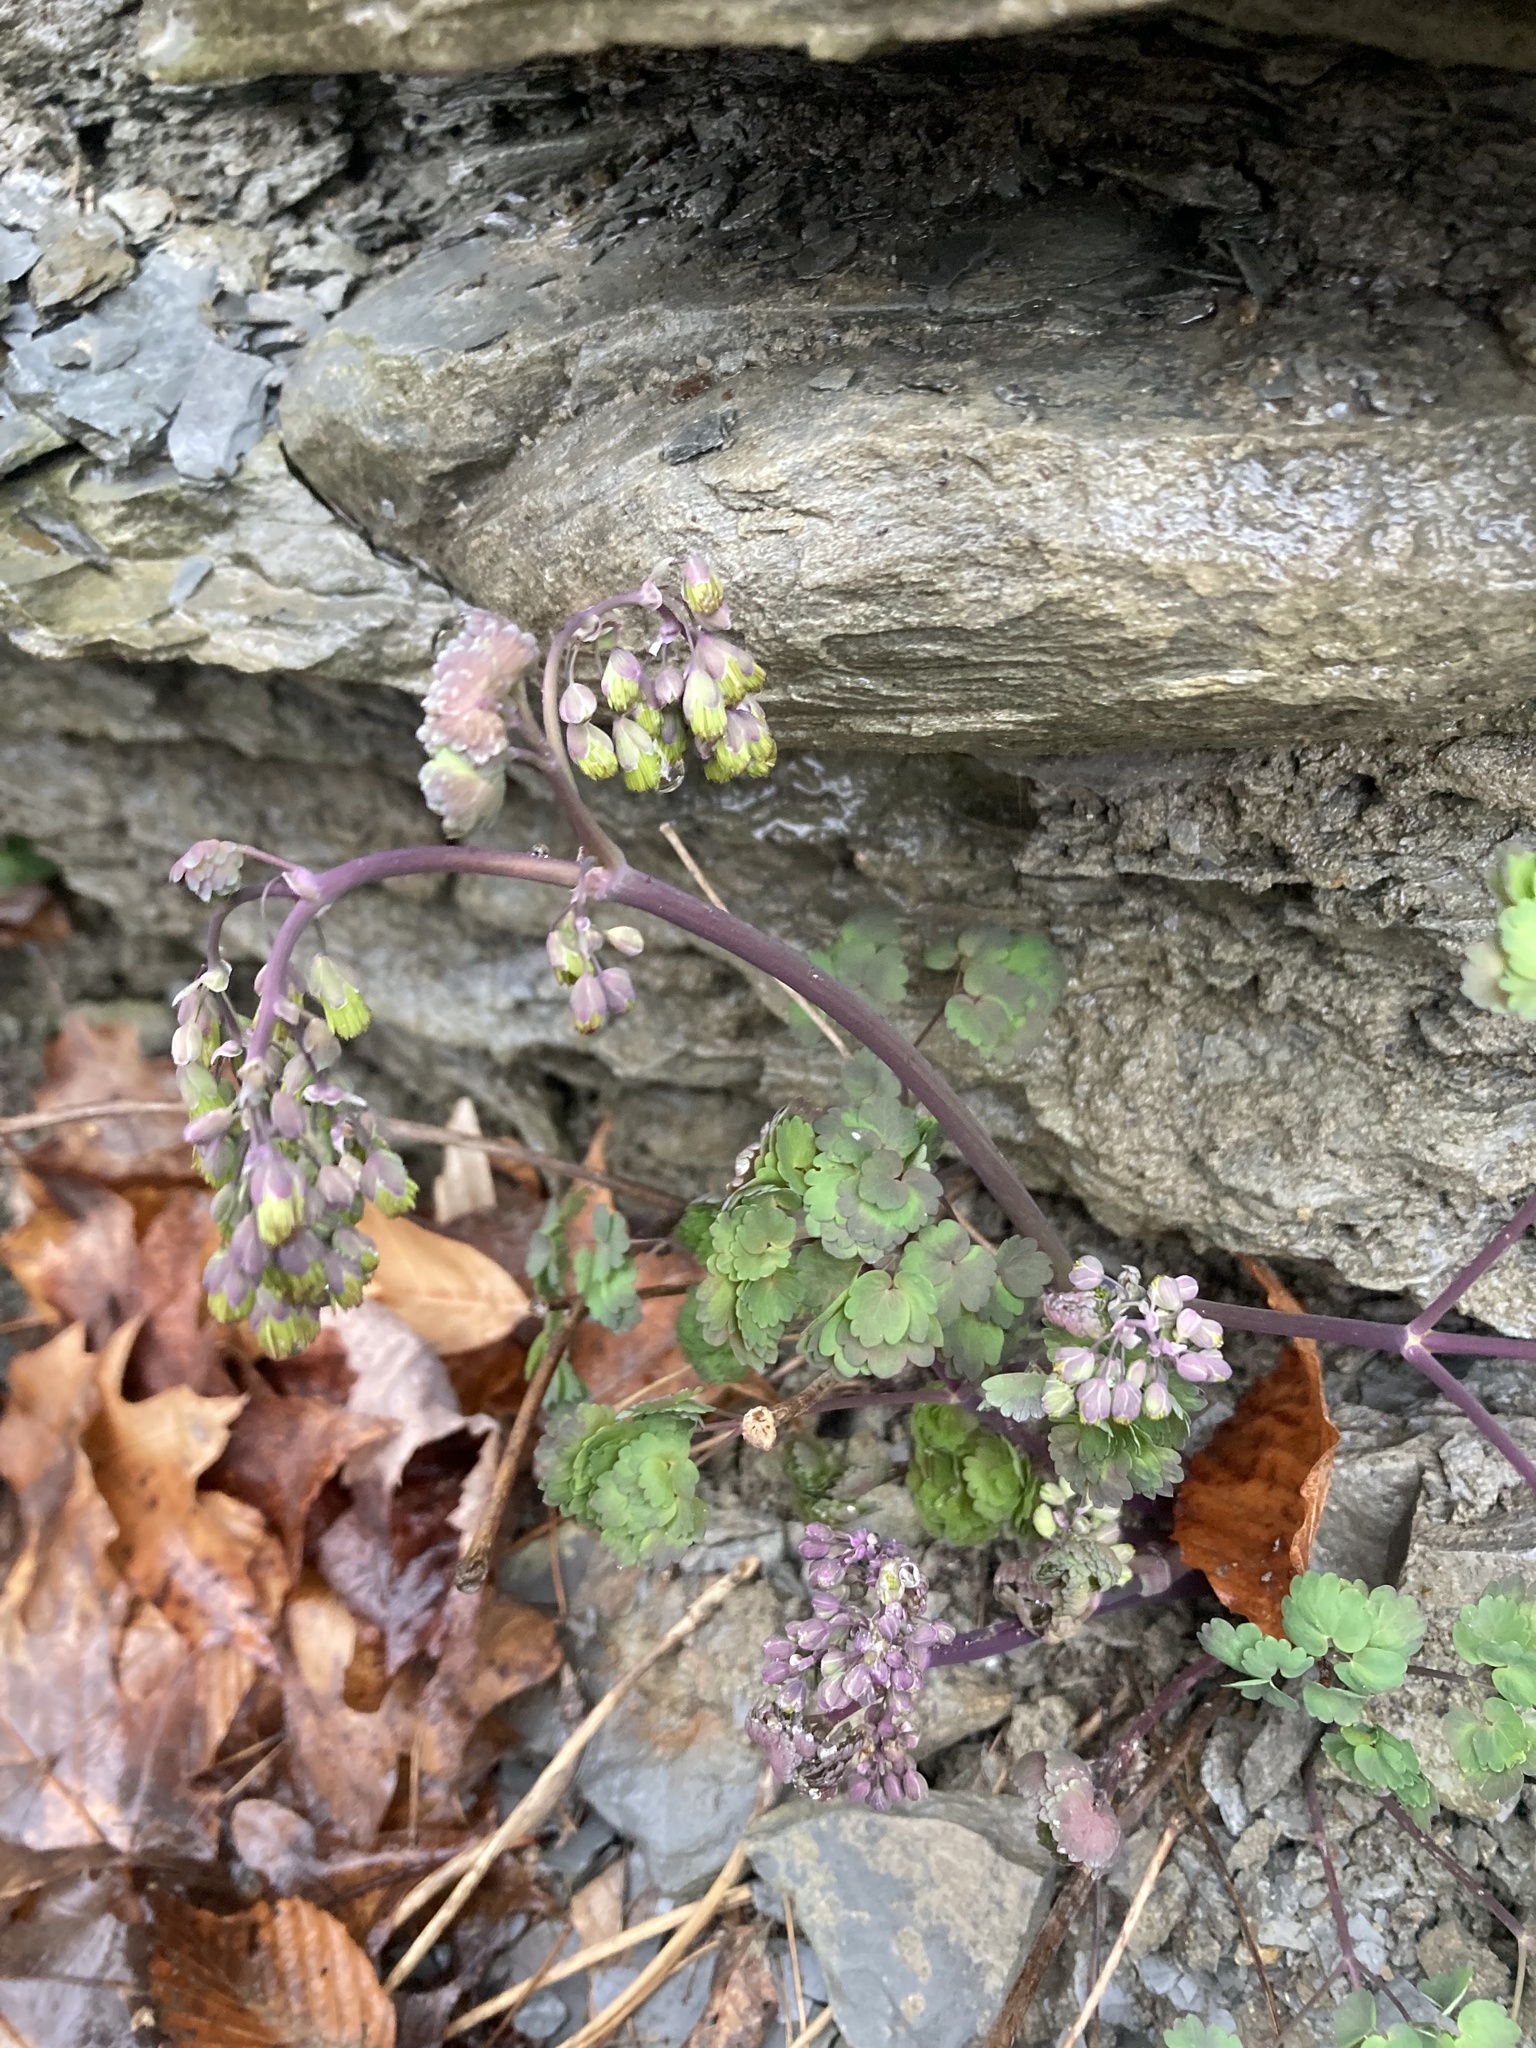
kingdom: Plantae
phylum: Tracheophyta
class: Magnoliopsida
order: Ranunculales
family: Ranunculaceae
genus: Thalictrum
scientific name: Thalictrum dioicum
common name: Early meadow-rue
